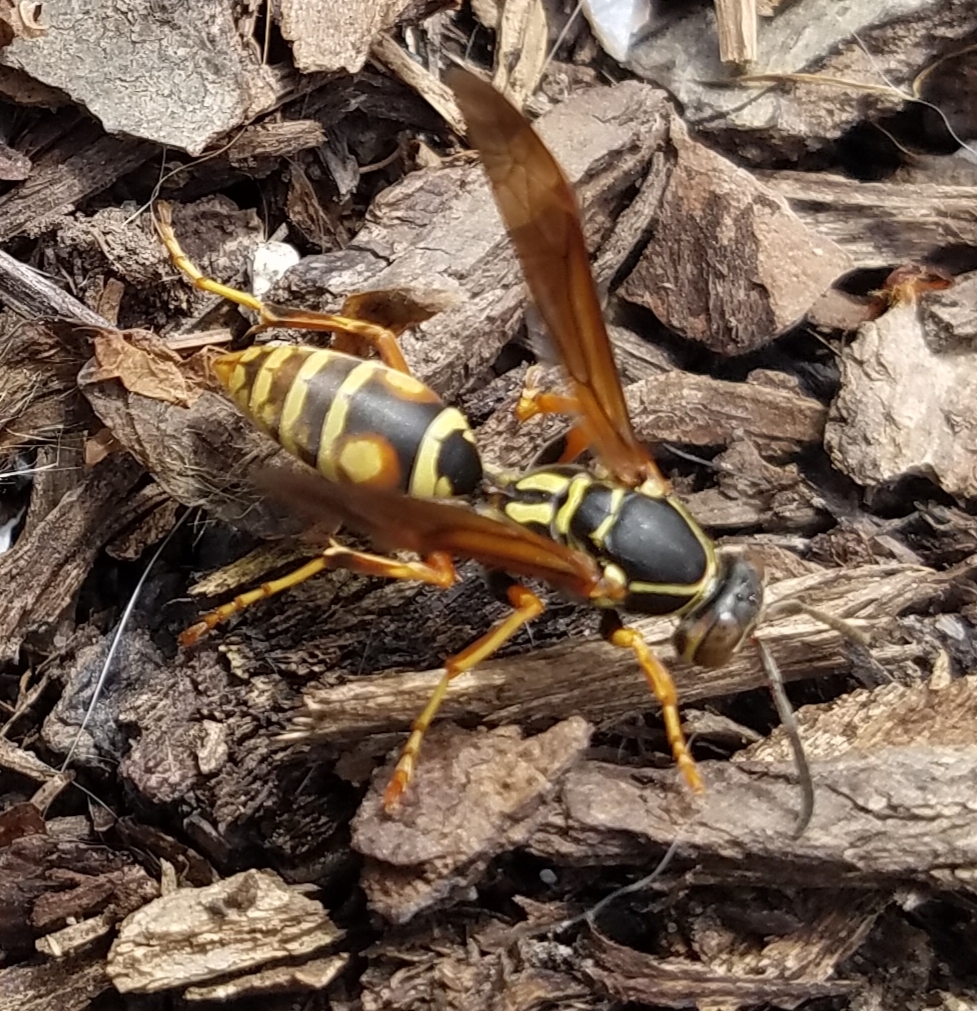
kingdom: Animalia
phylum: Arthropoda
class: Insecta
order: Hymenoptera
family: Eumenidae
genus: Polistes
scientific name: Polistes fuscatus
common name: Dark paper wasp
